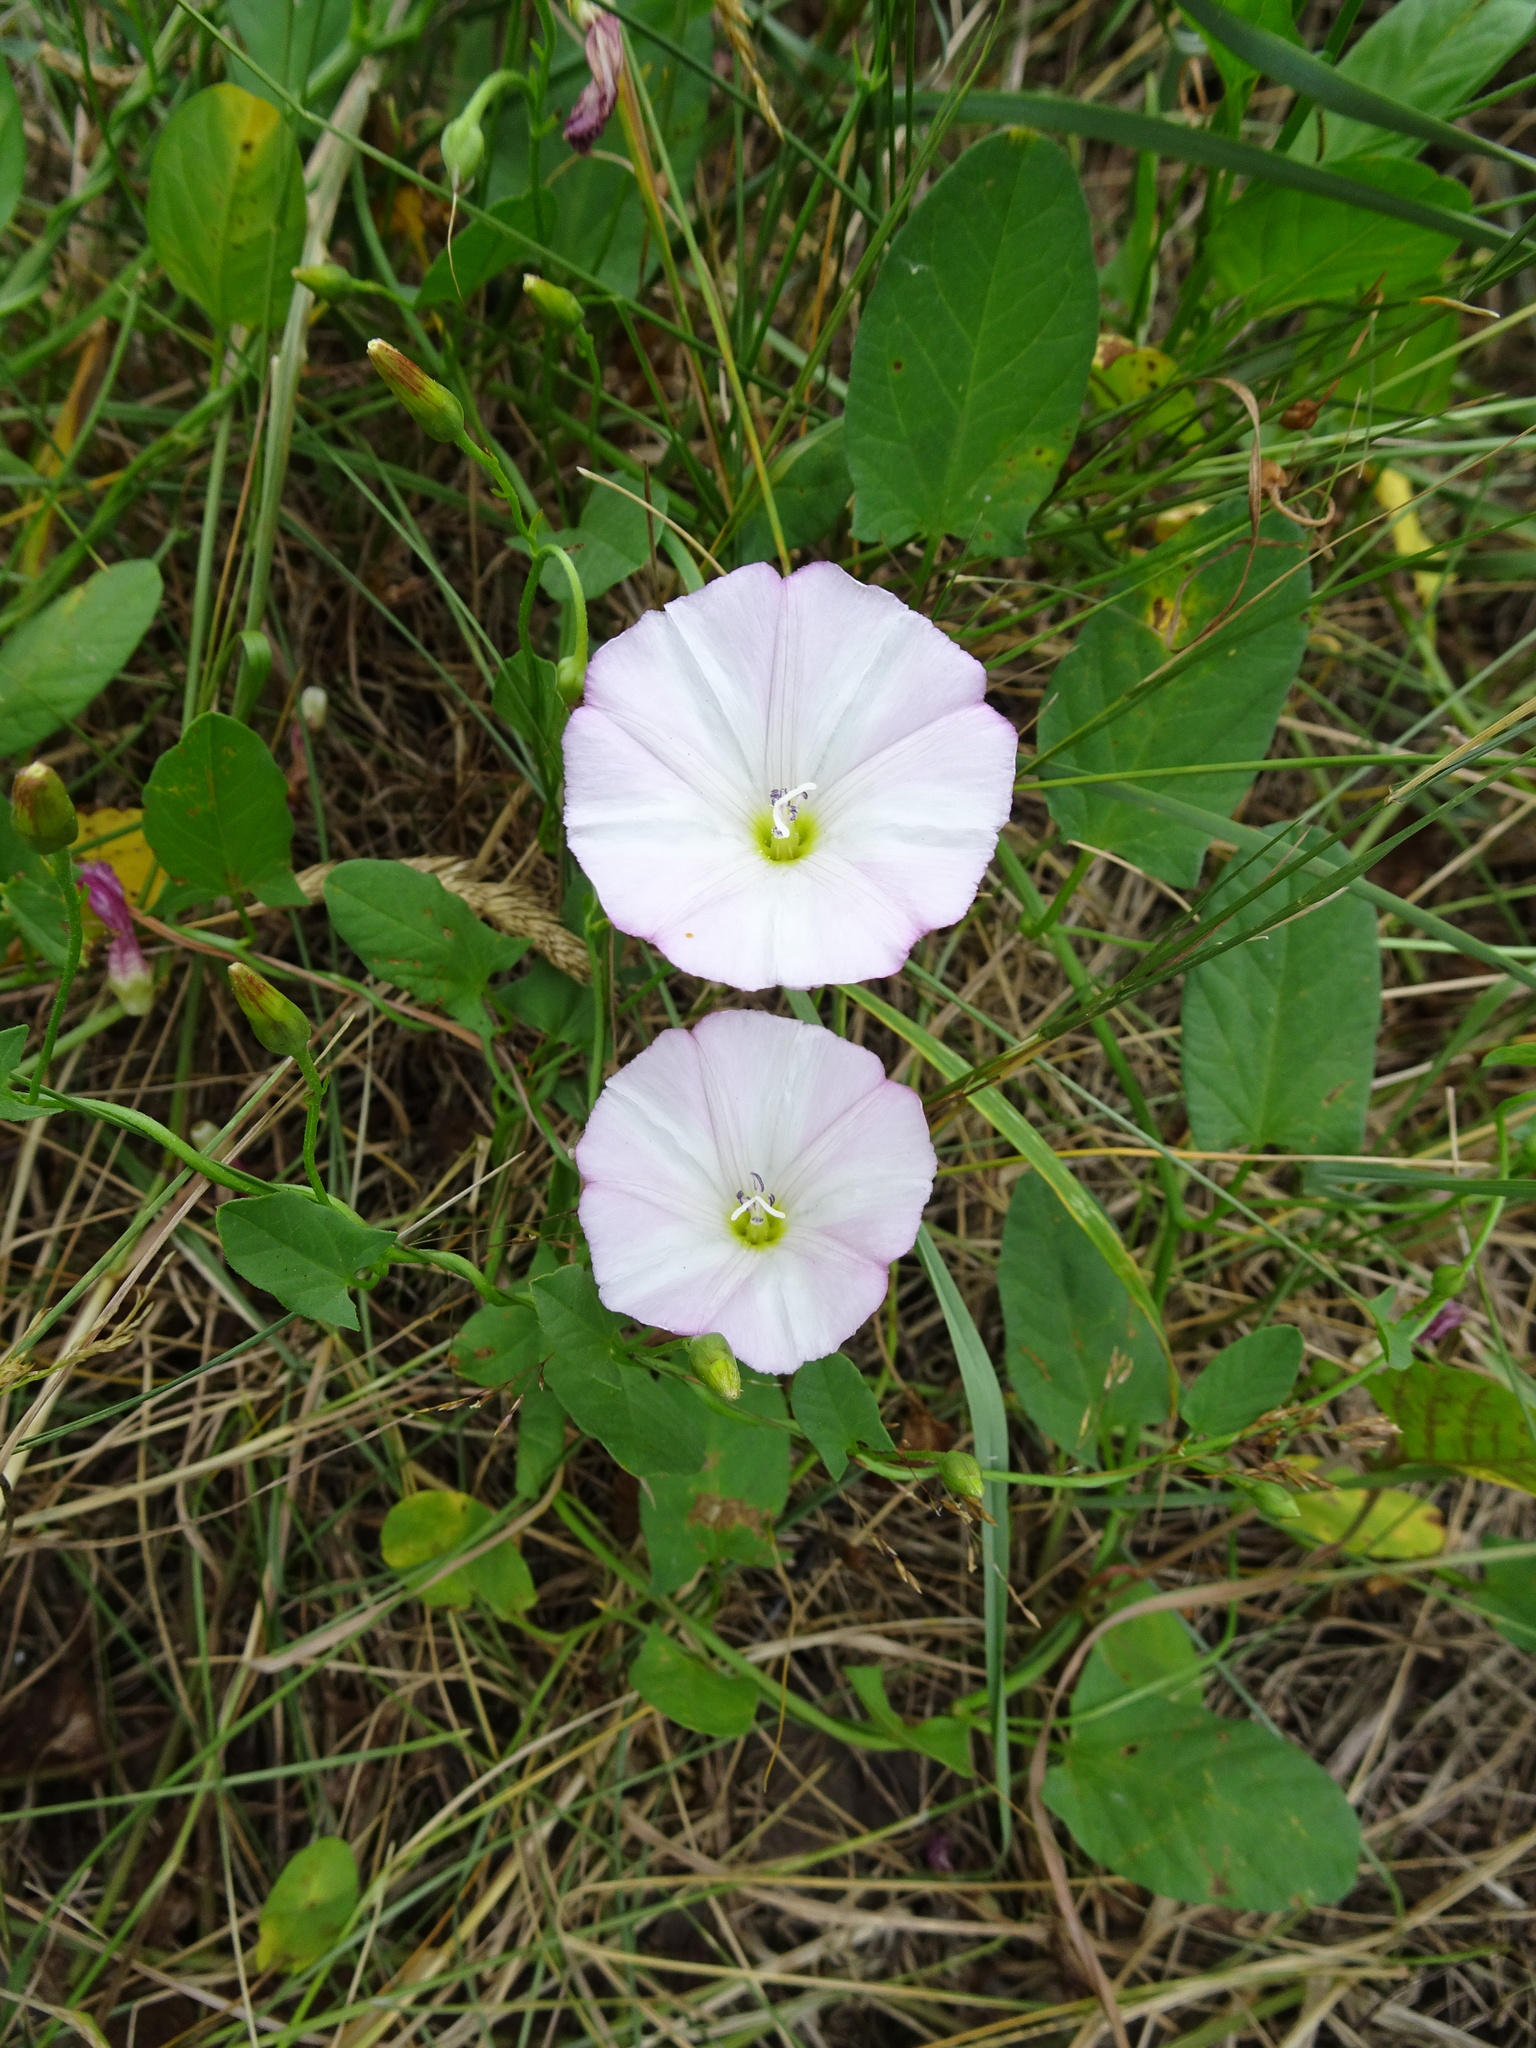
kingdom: Plantae
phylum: Tracheophyta
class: Magnoliopsida
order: Solanales
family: Convolvulaceae
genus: Convolvulus
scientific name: Convolvulus arvensis
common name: Field bindweed
